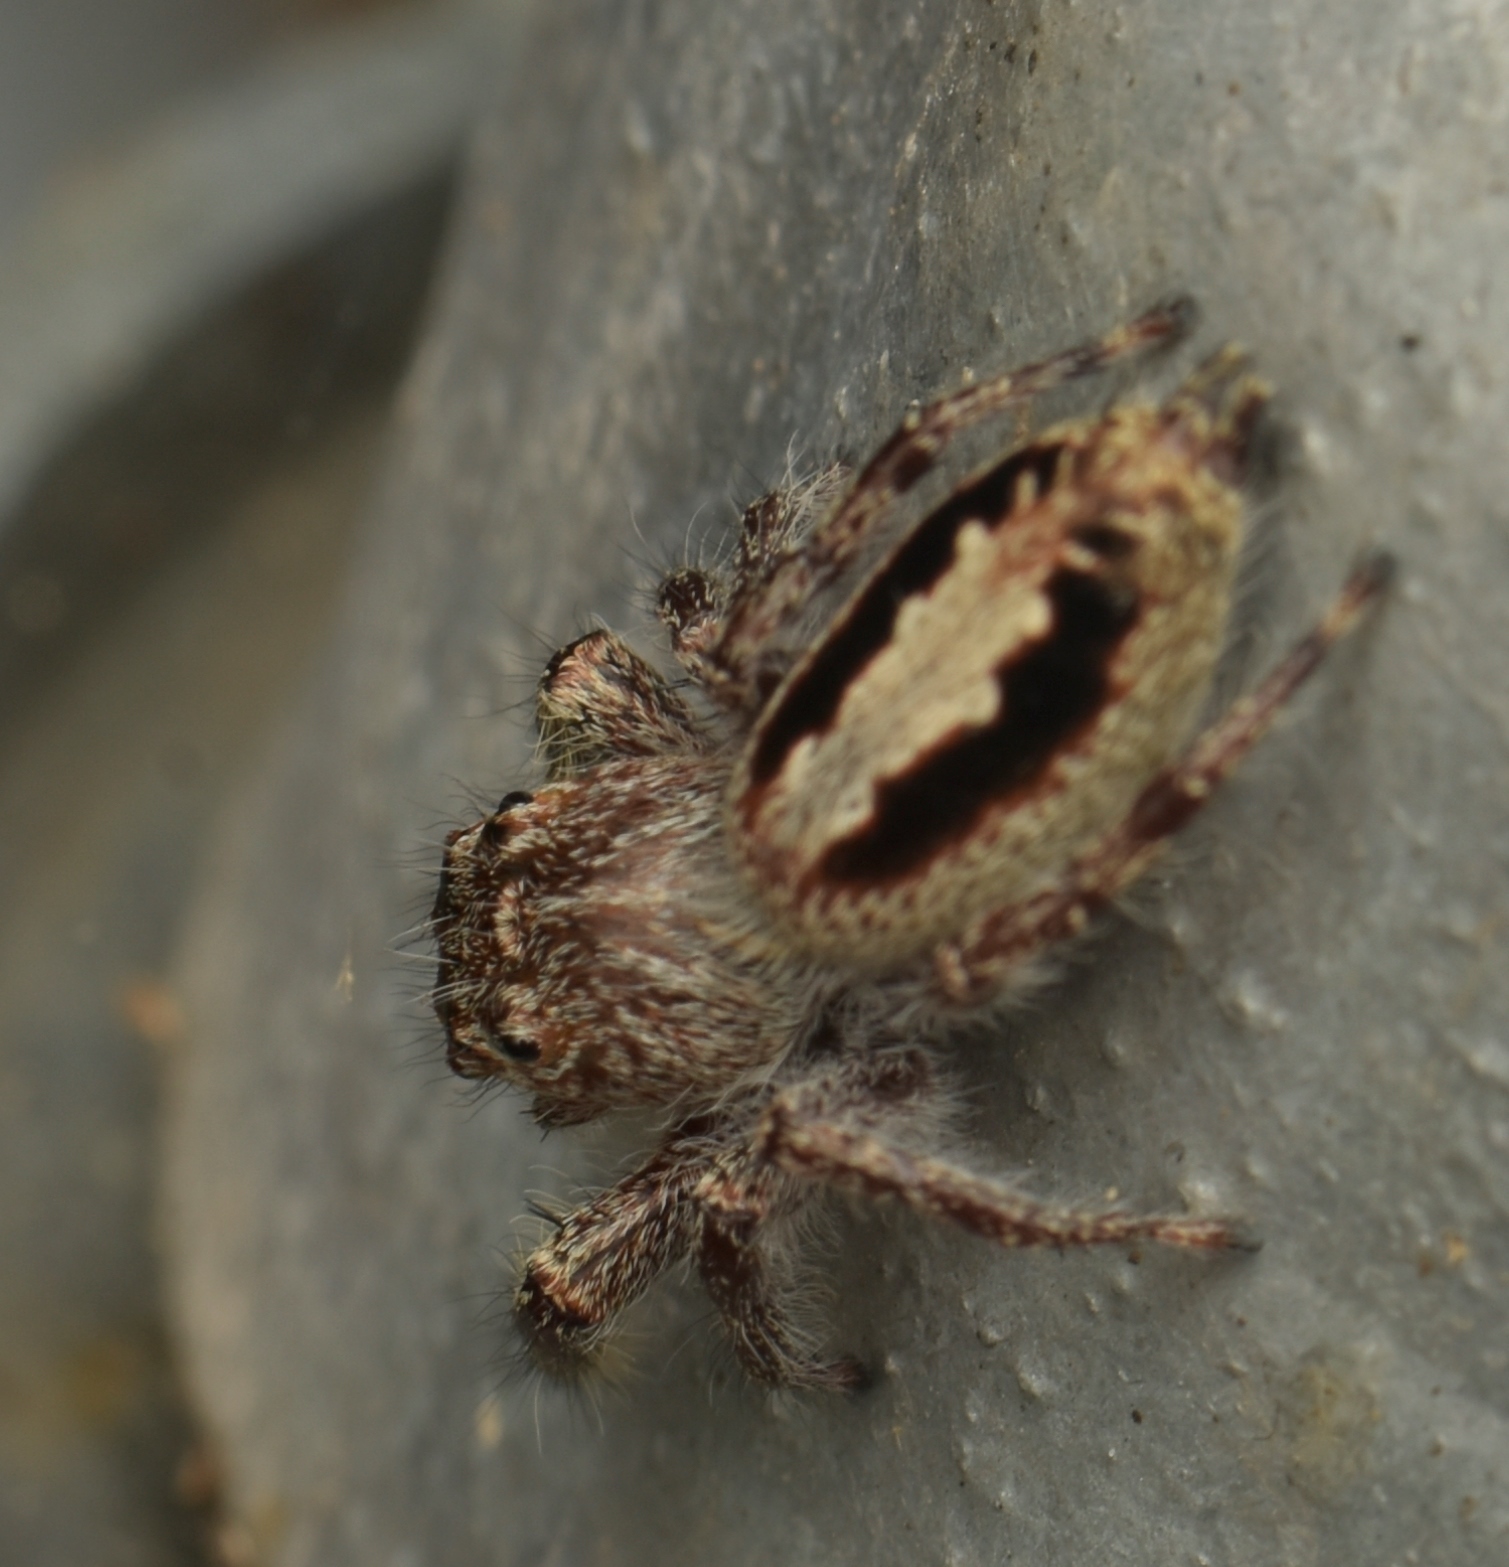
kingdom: Animalia
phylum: Arthropoda
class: Arachnida
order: Araneae
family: Salticidae
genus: Sandalodes
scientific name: Sandalodes superbus
